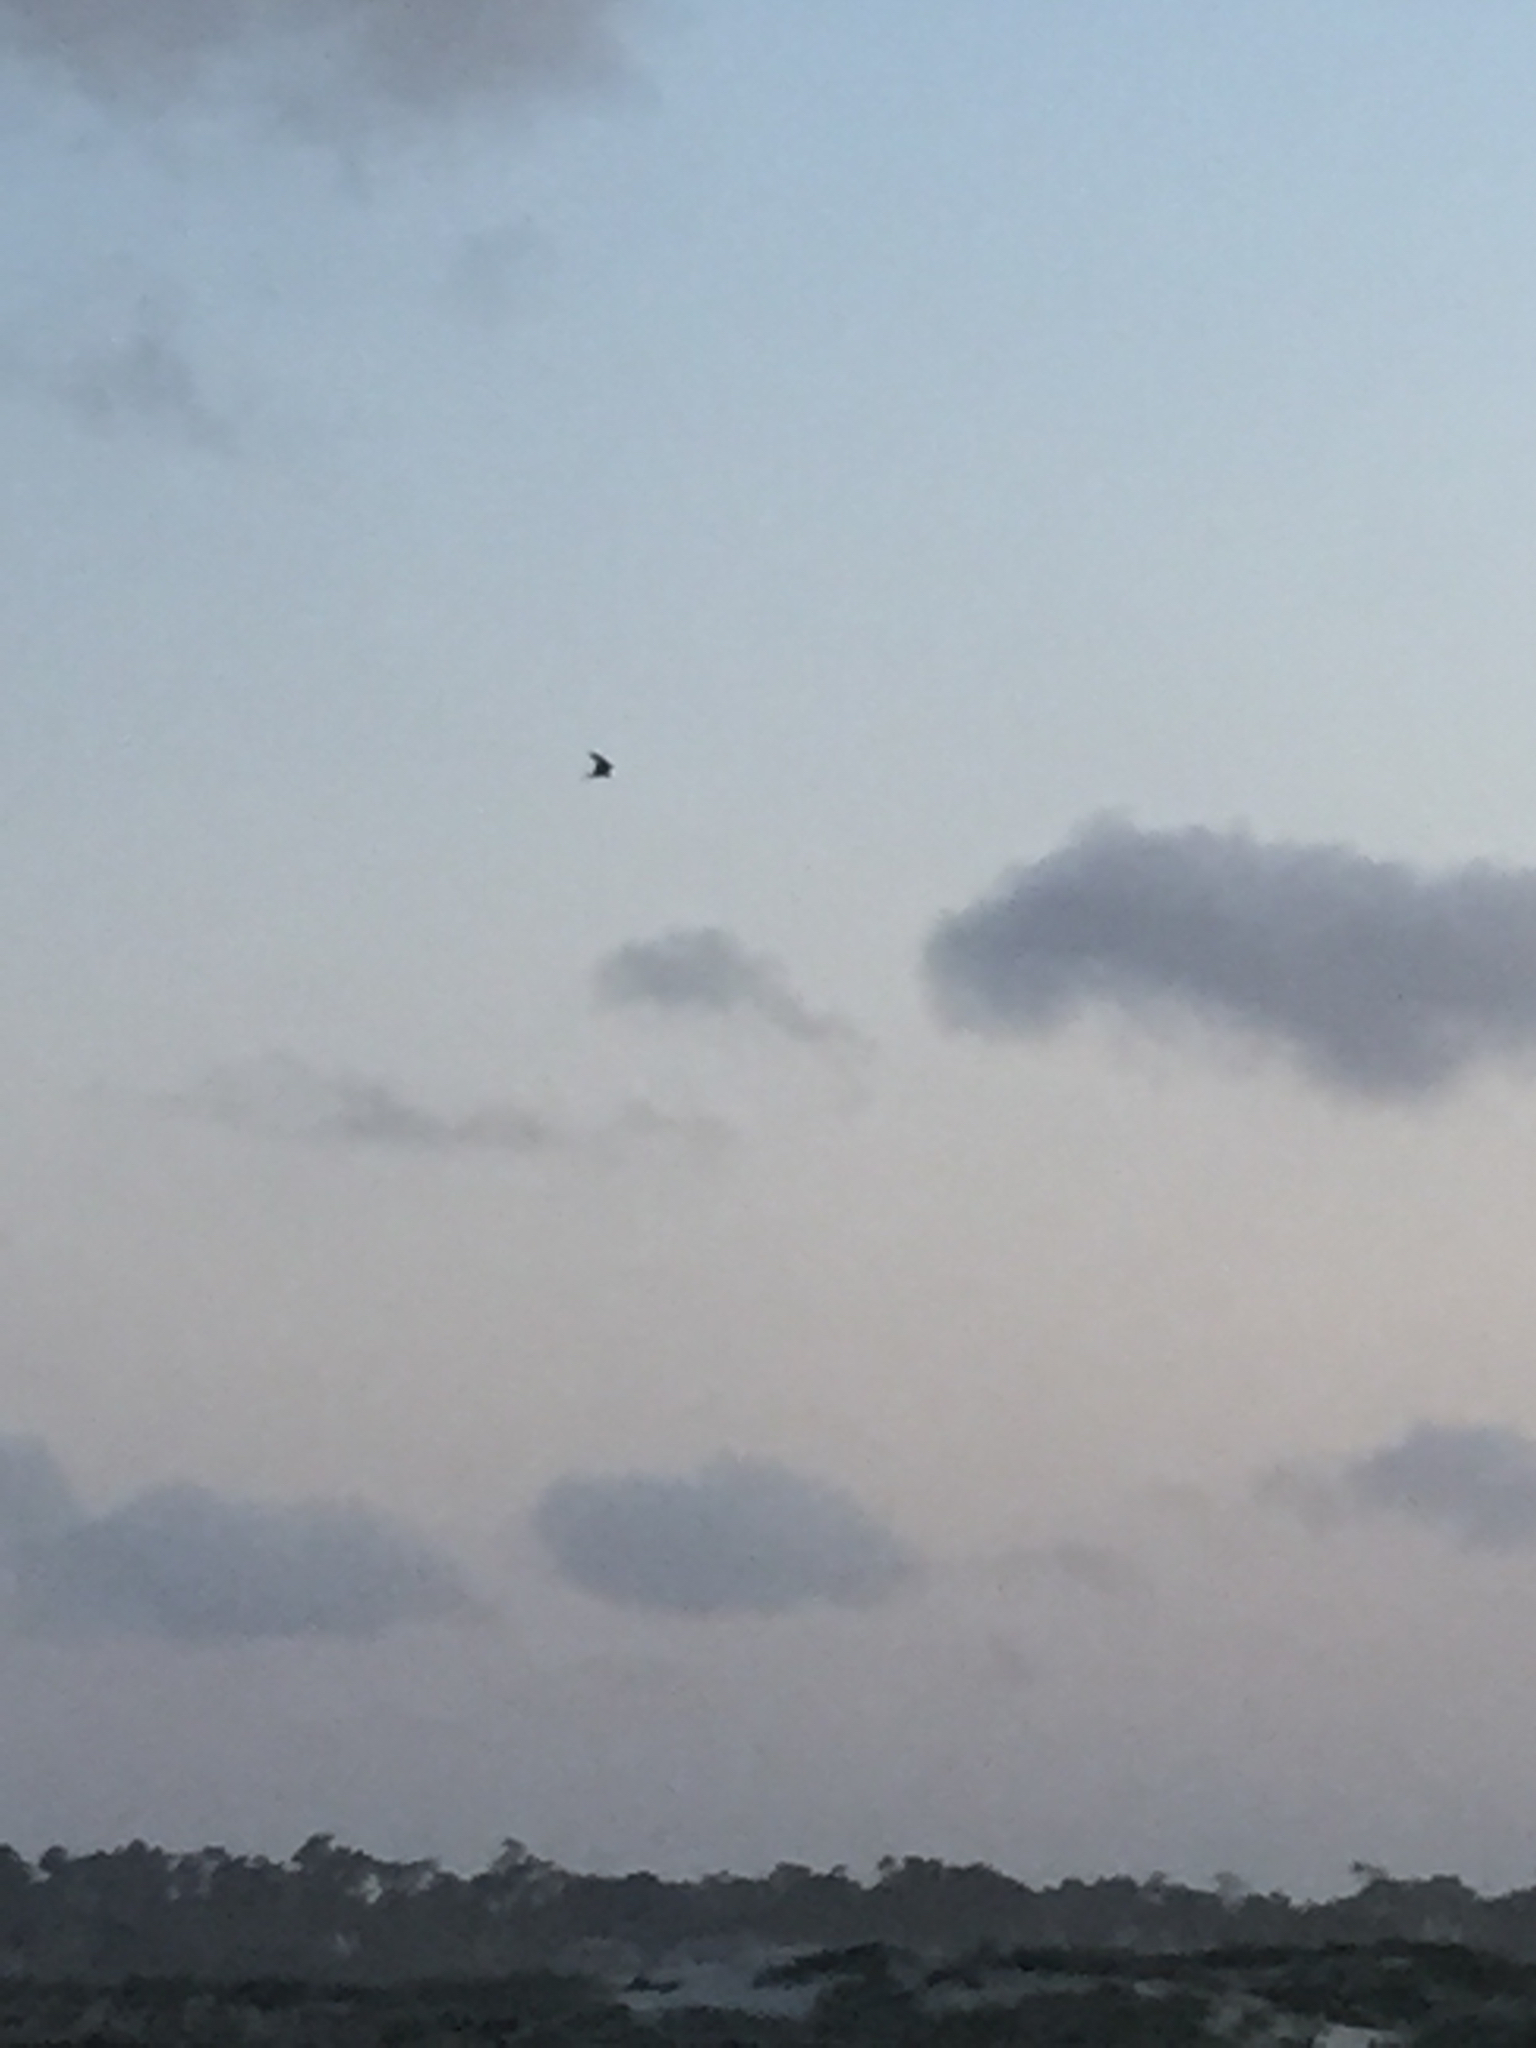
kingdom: Animalia
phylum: Chordata
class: Aves
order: Accipitriformes
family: Accipitridae
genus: Elanus
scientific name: Elanus leucurus
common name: White-tailed kite
